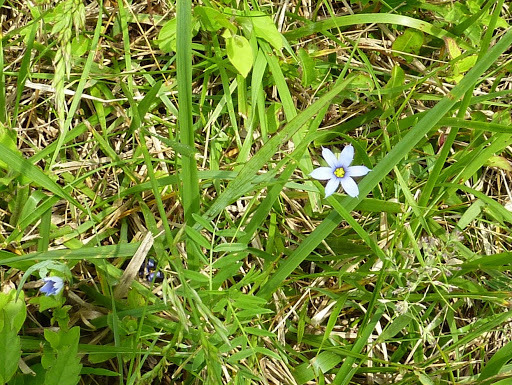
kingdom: Plantae
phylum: Tracheophyta
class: Liliopsida
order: Asparagales
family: Iridaceae
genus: Sisyrinchium
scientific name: Sisyrinchium angustifolium
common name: Narrow-leaf blue-eyed-grass
